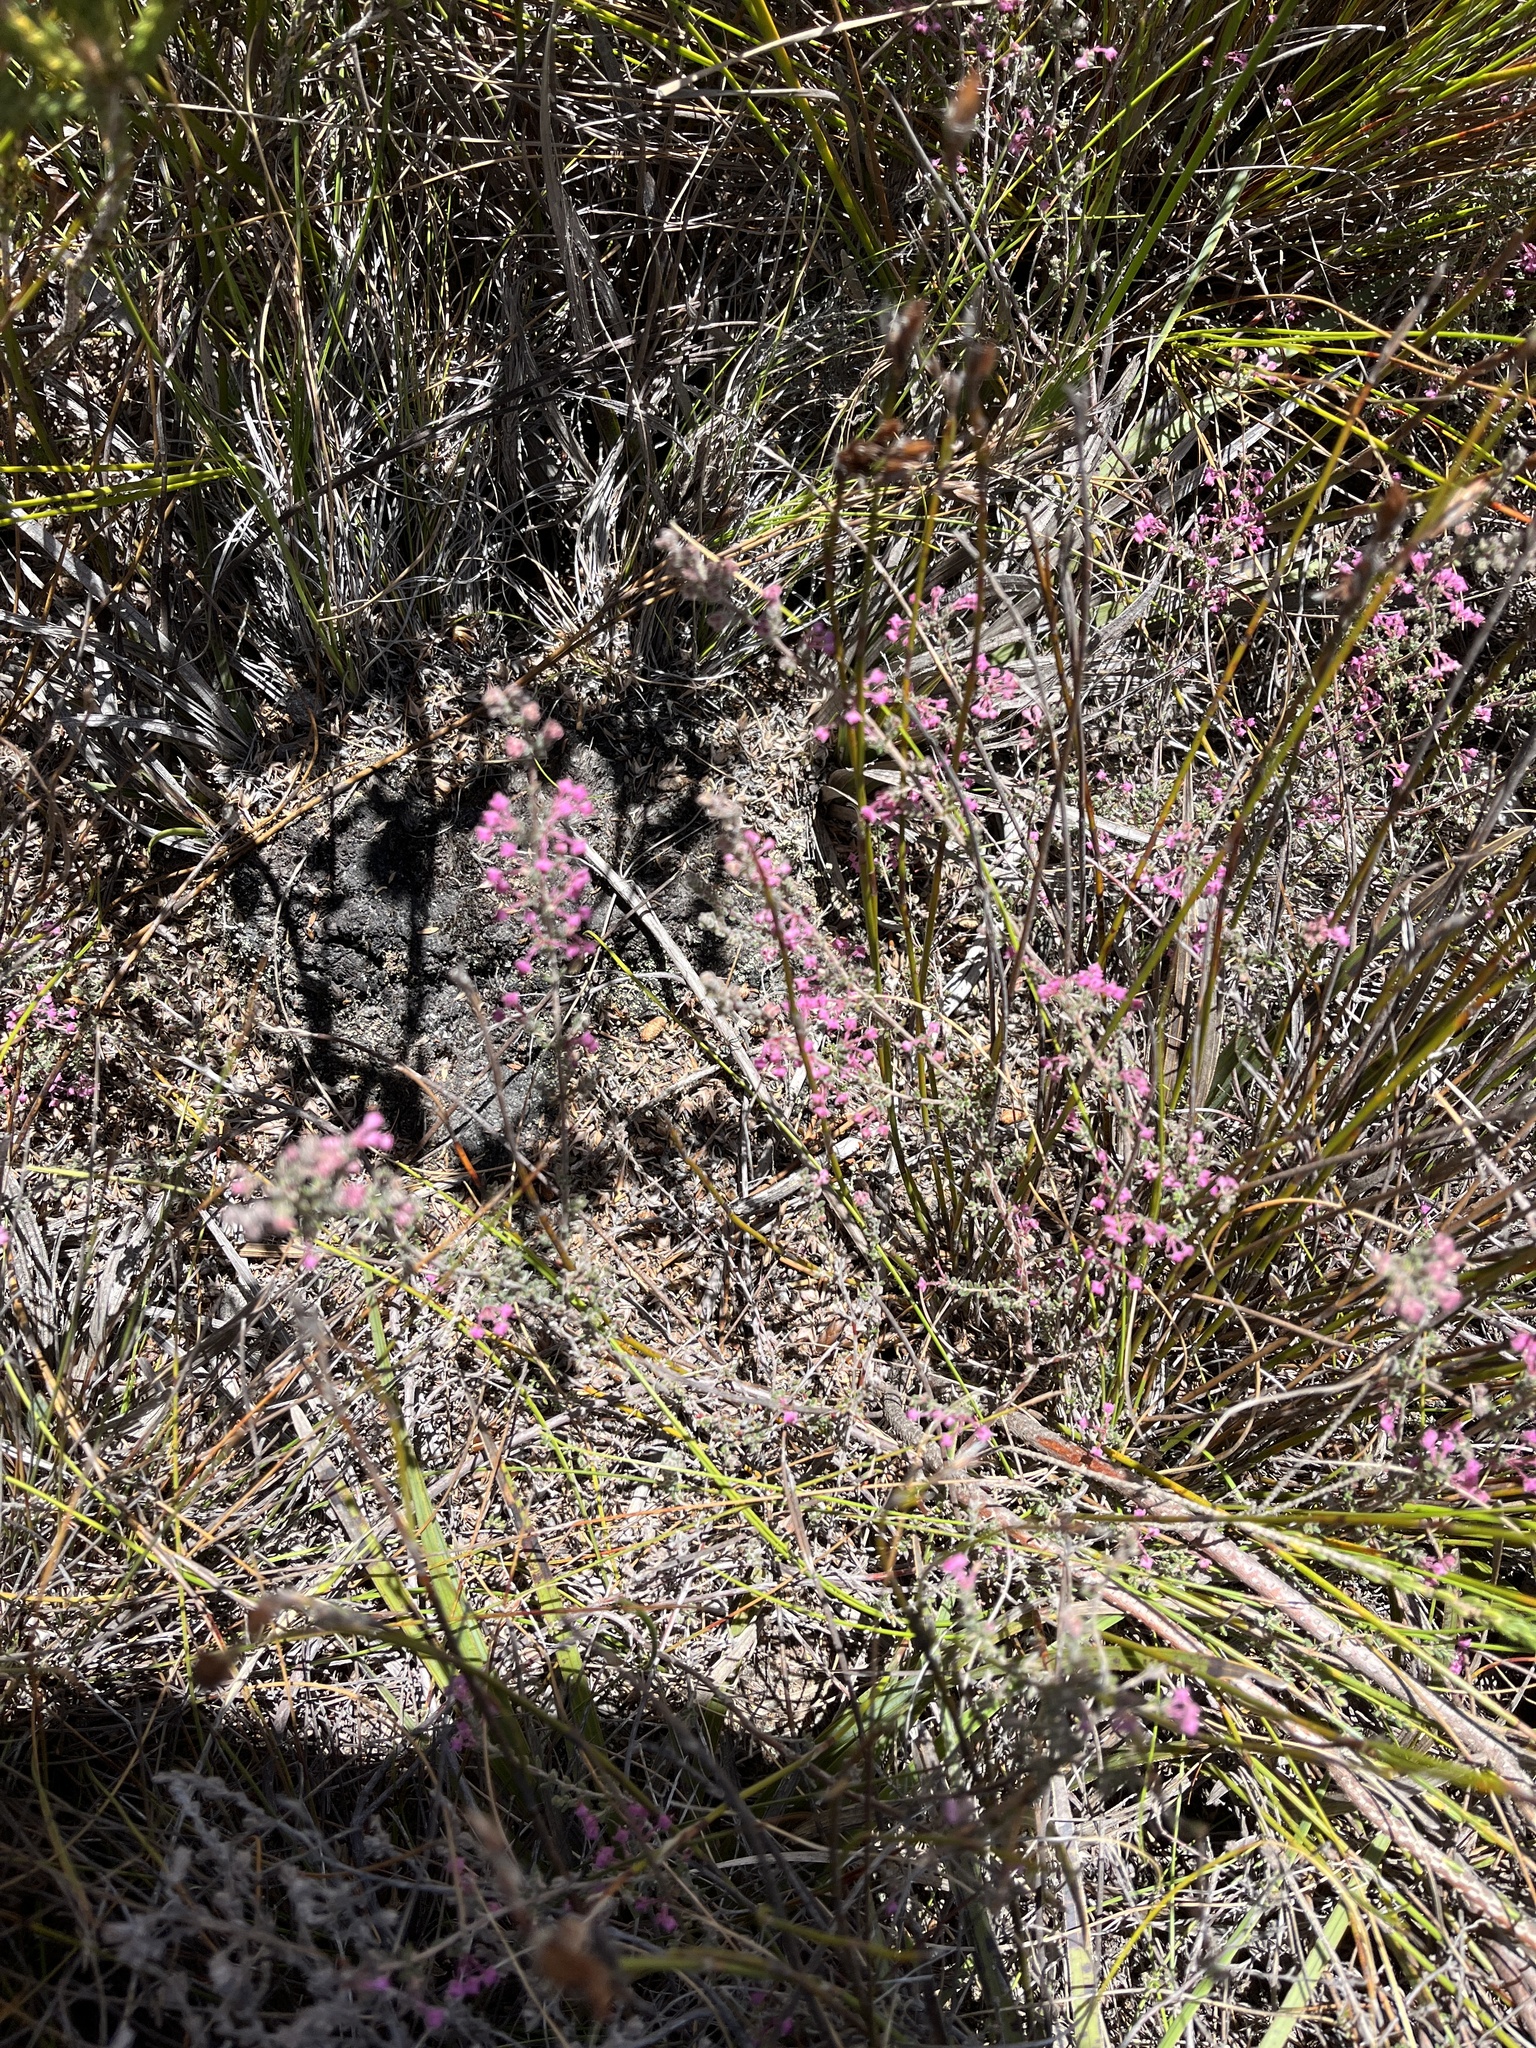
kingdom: Plantae
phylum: Tracheophyta
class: Magnoliopsida
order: Ericales
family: Ericaceae
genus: Erica
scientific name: Erica atropurpurea
